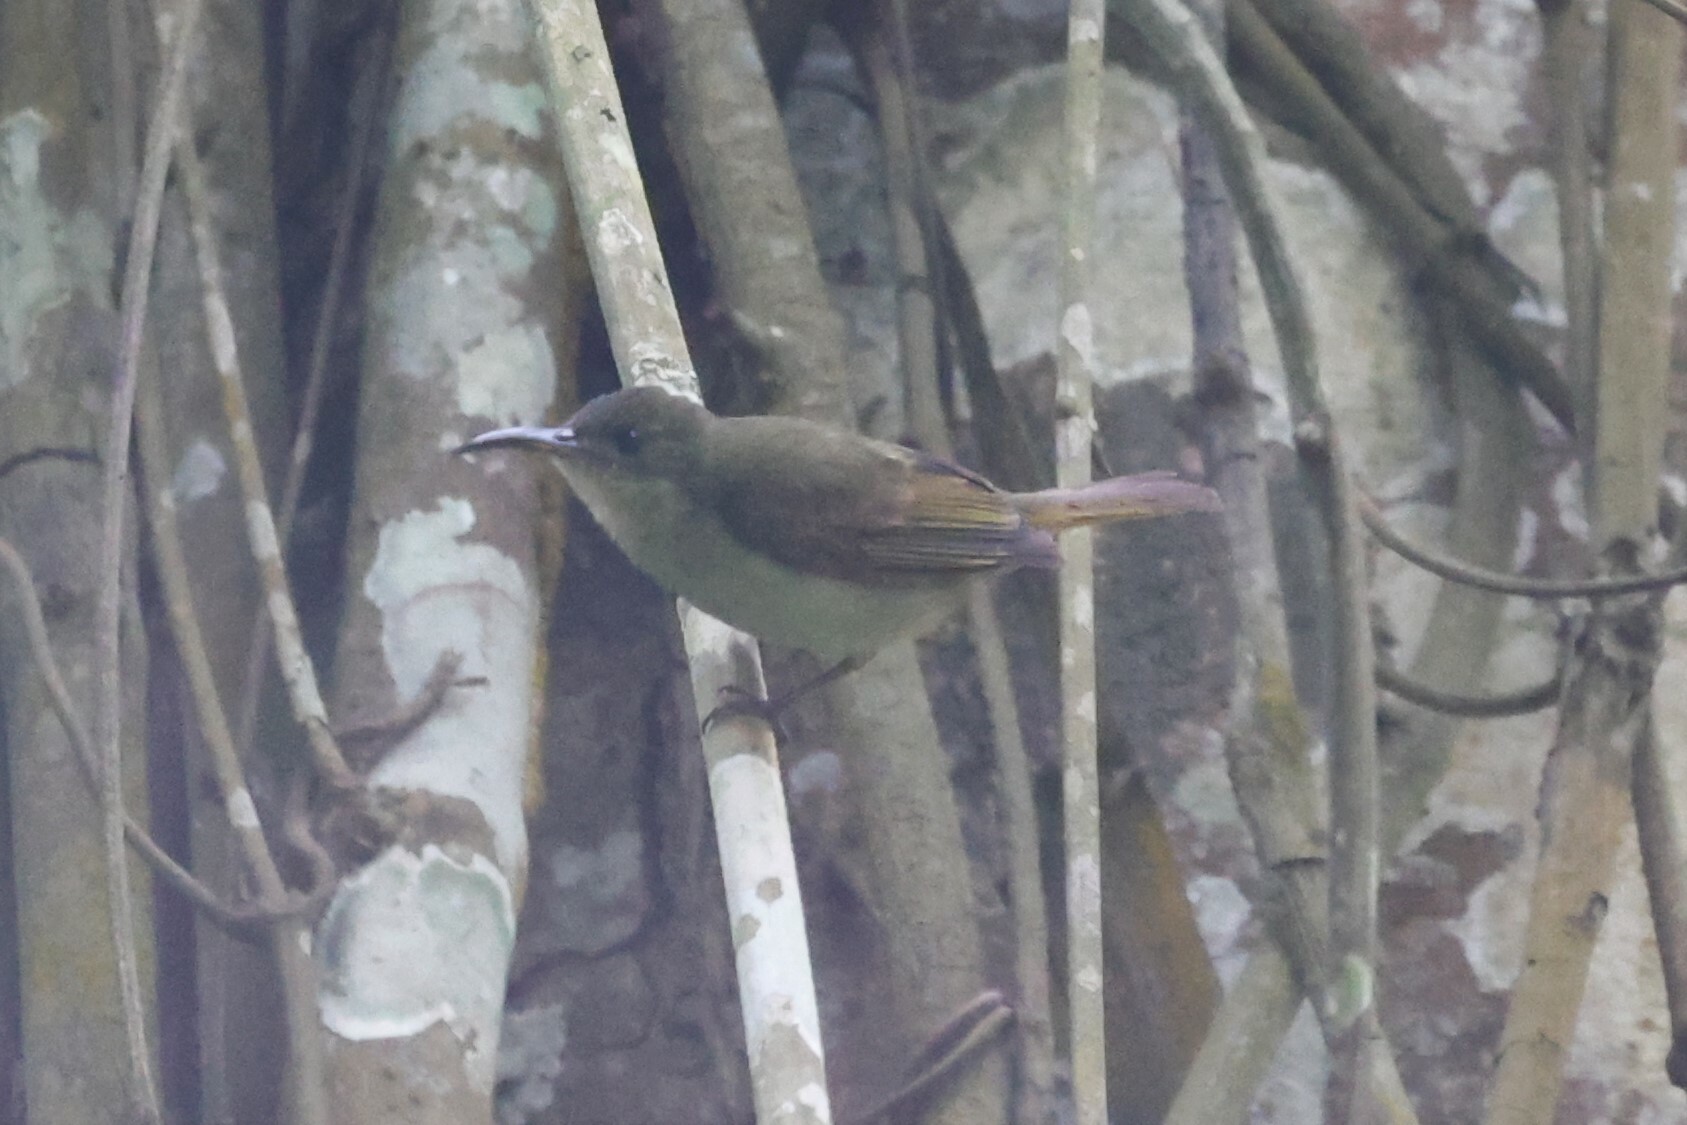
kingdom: Animalia
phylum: Chordata
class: Aves
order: Passeriformes
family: Nectariniidae
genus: Cyanomitra
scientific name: Cyanomitra olivacea
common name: Olive sunbird
